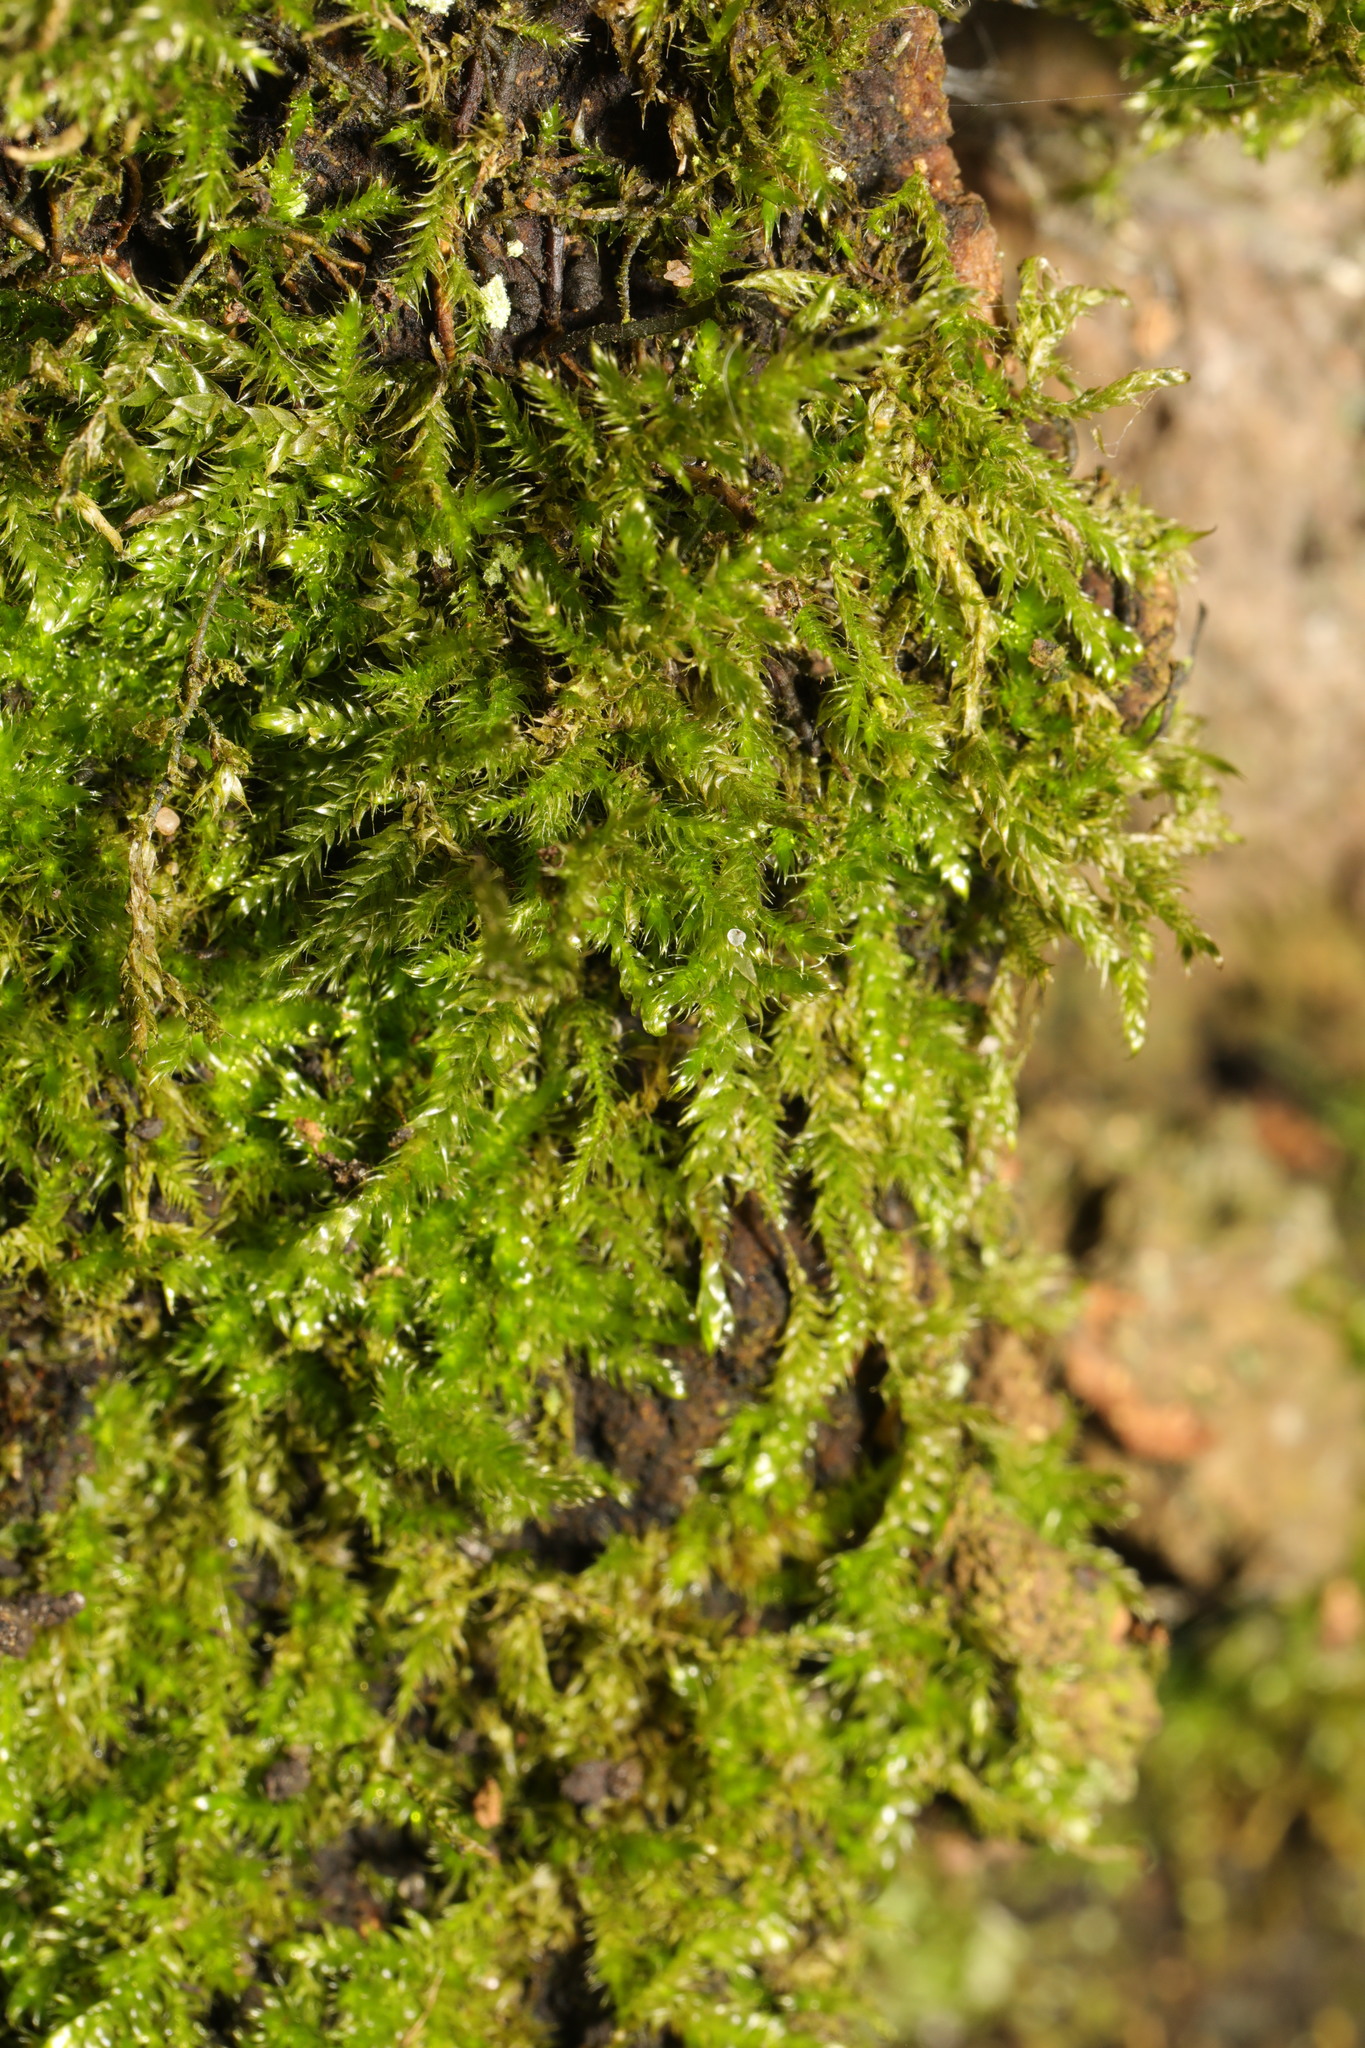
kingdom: Plantae
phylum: Bryophyta
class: Bryopsida
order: Hypnales
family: Brachytheciaceae
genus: Brachythecium
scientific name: Brachythecium rutabulum
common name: Rough-stalked feather-moss
